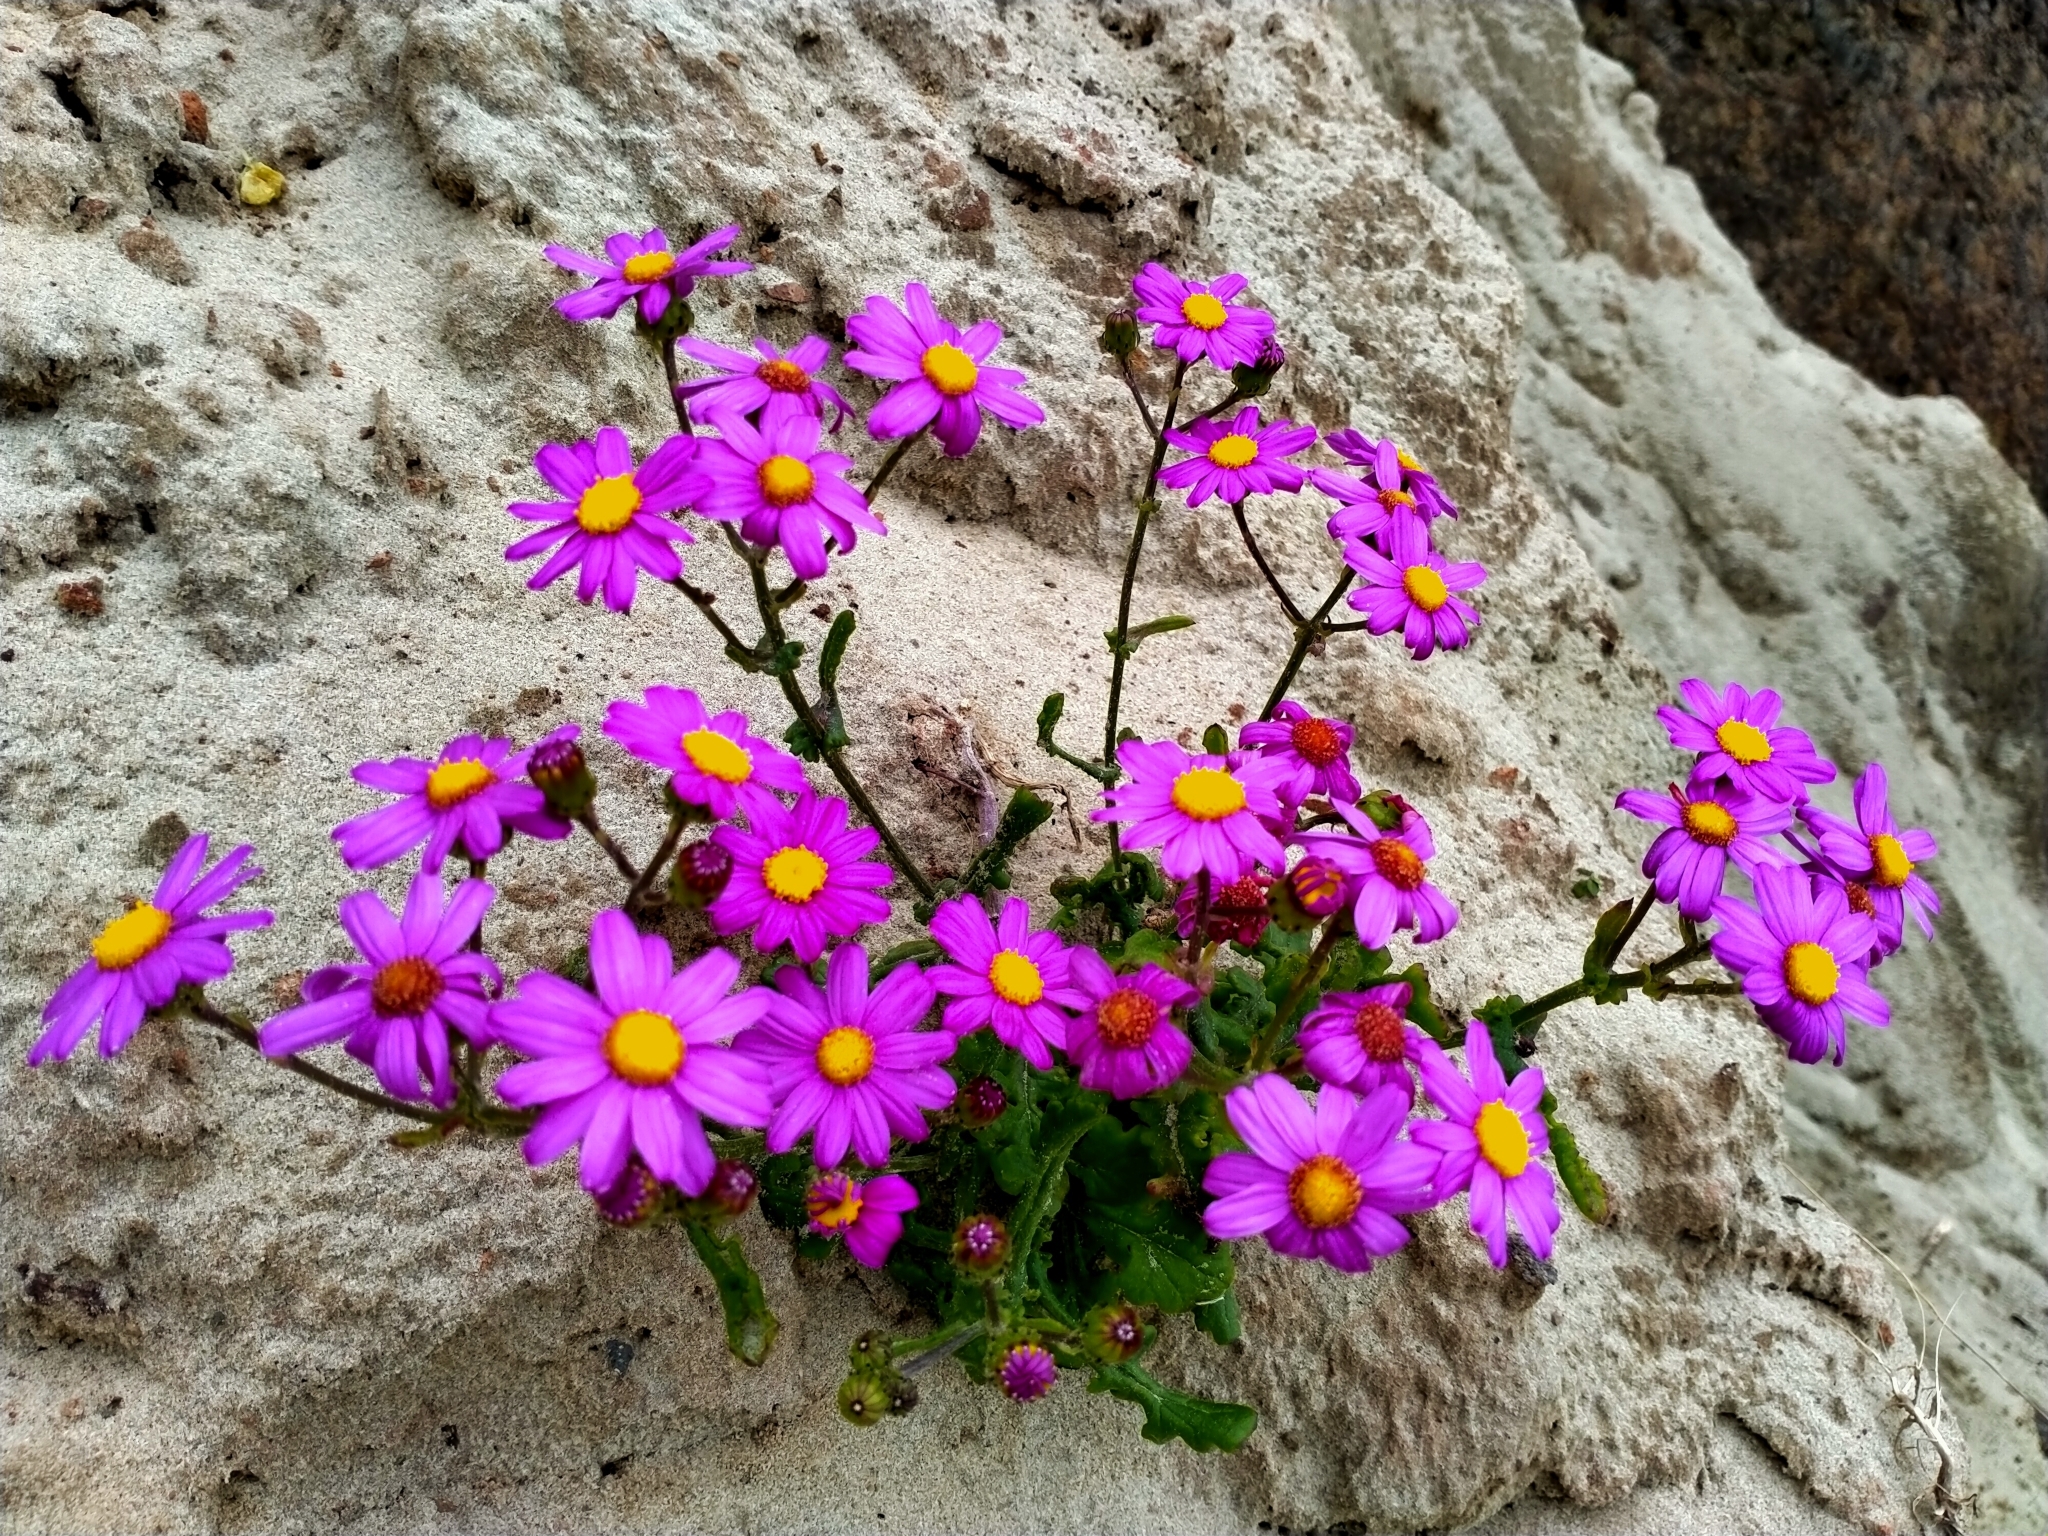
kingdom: Plantae
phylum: Tracheophyta
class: Magnoliopsida
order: Asterales
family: Asteraceae
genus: Senecio
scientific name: Senecio elegans
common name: Purple groundsel
